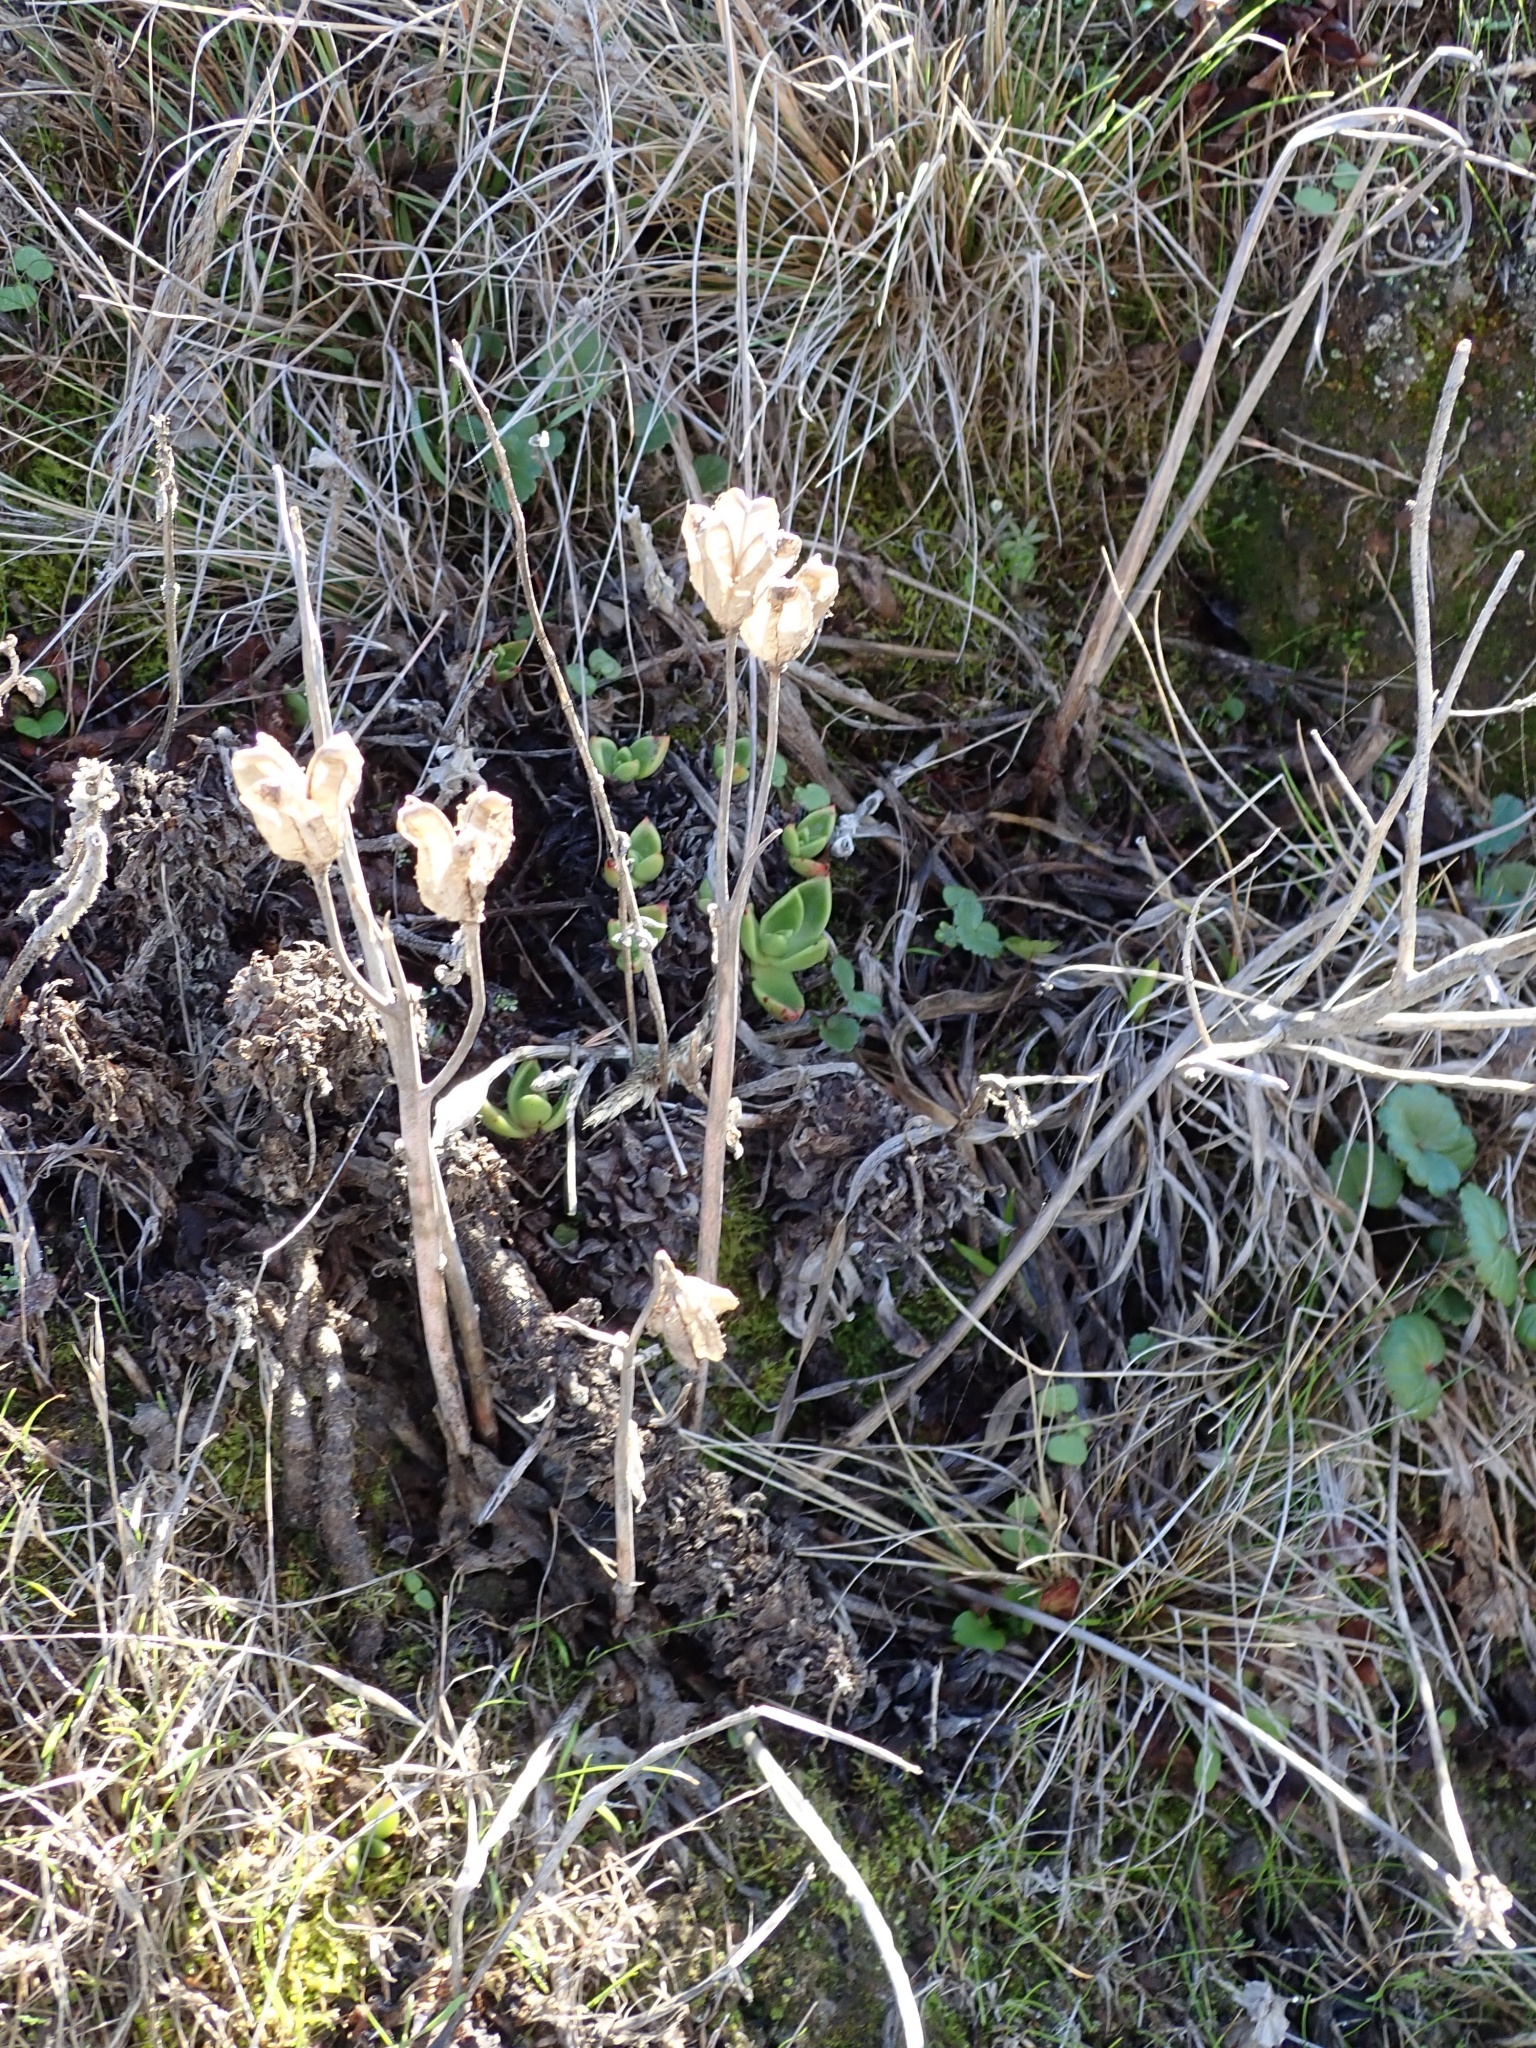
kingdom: Plantae
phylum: Tracheophyta
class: Liliopsida
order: Liliales
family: Liliaceae
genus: Fritillaria
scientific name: Fritillaria liliacea
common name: Fragrant fritillary
